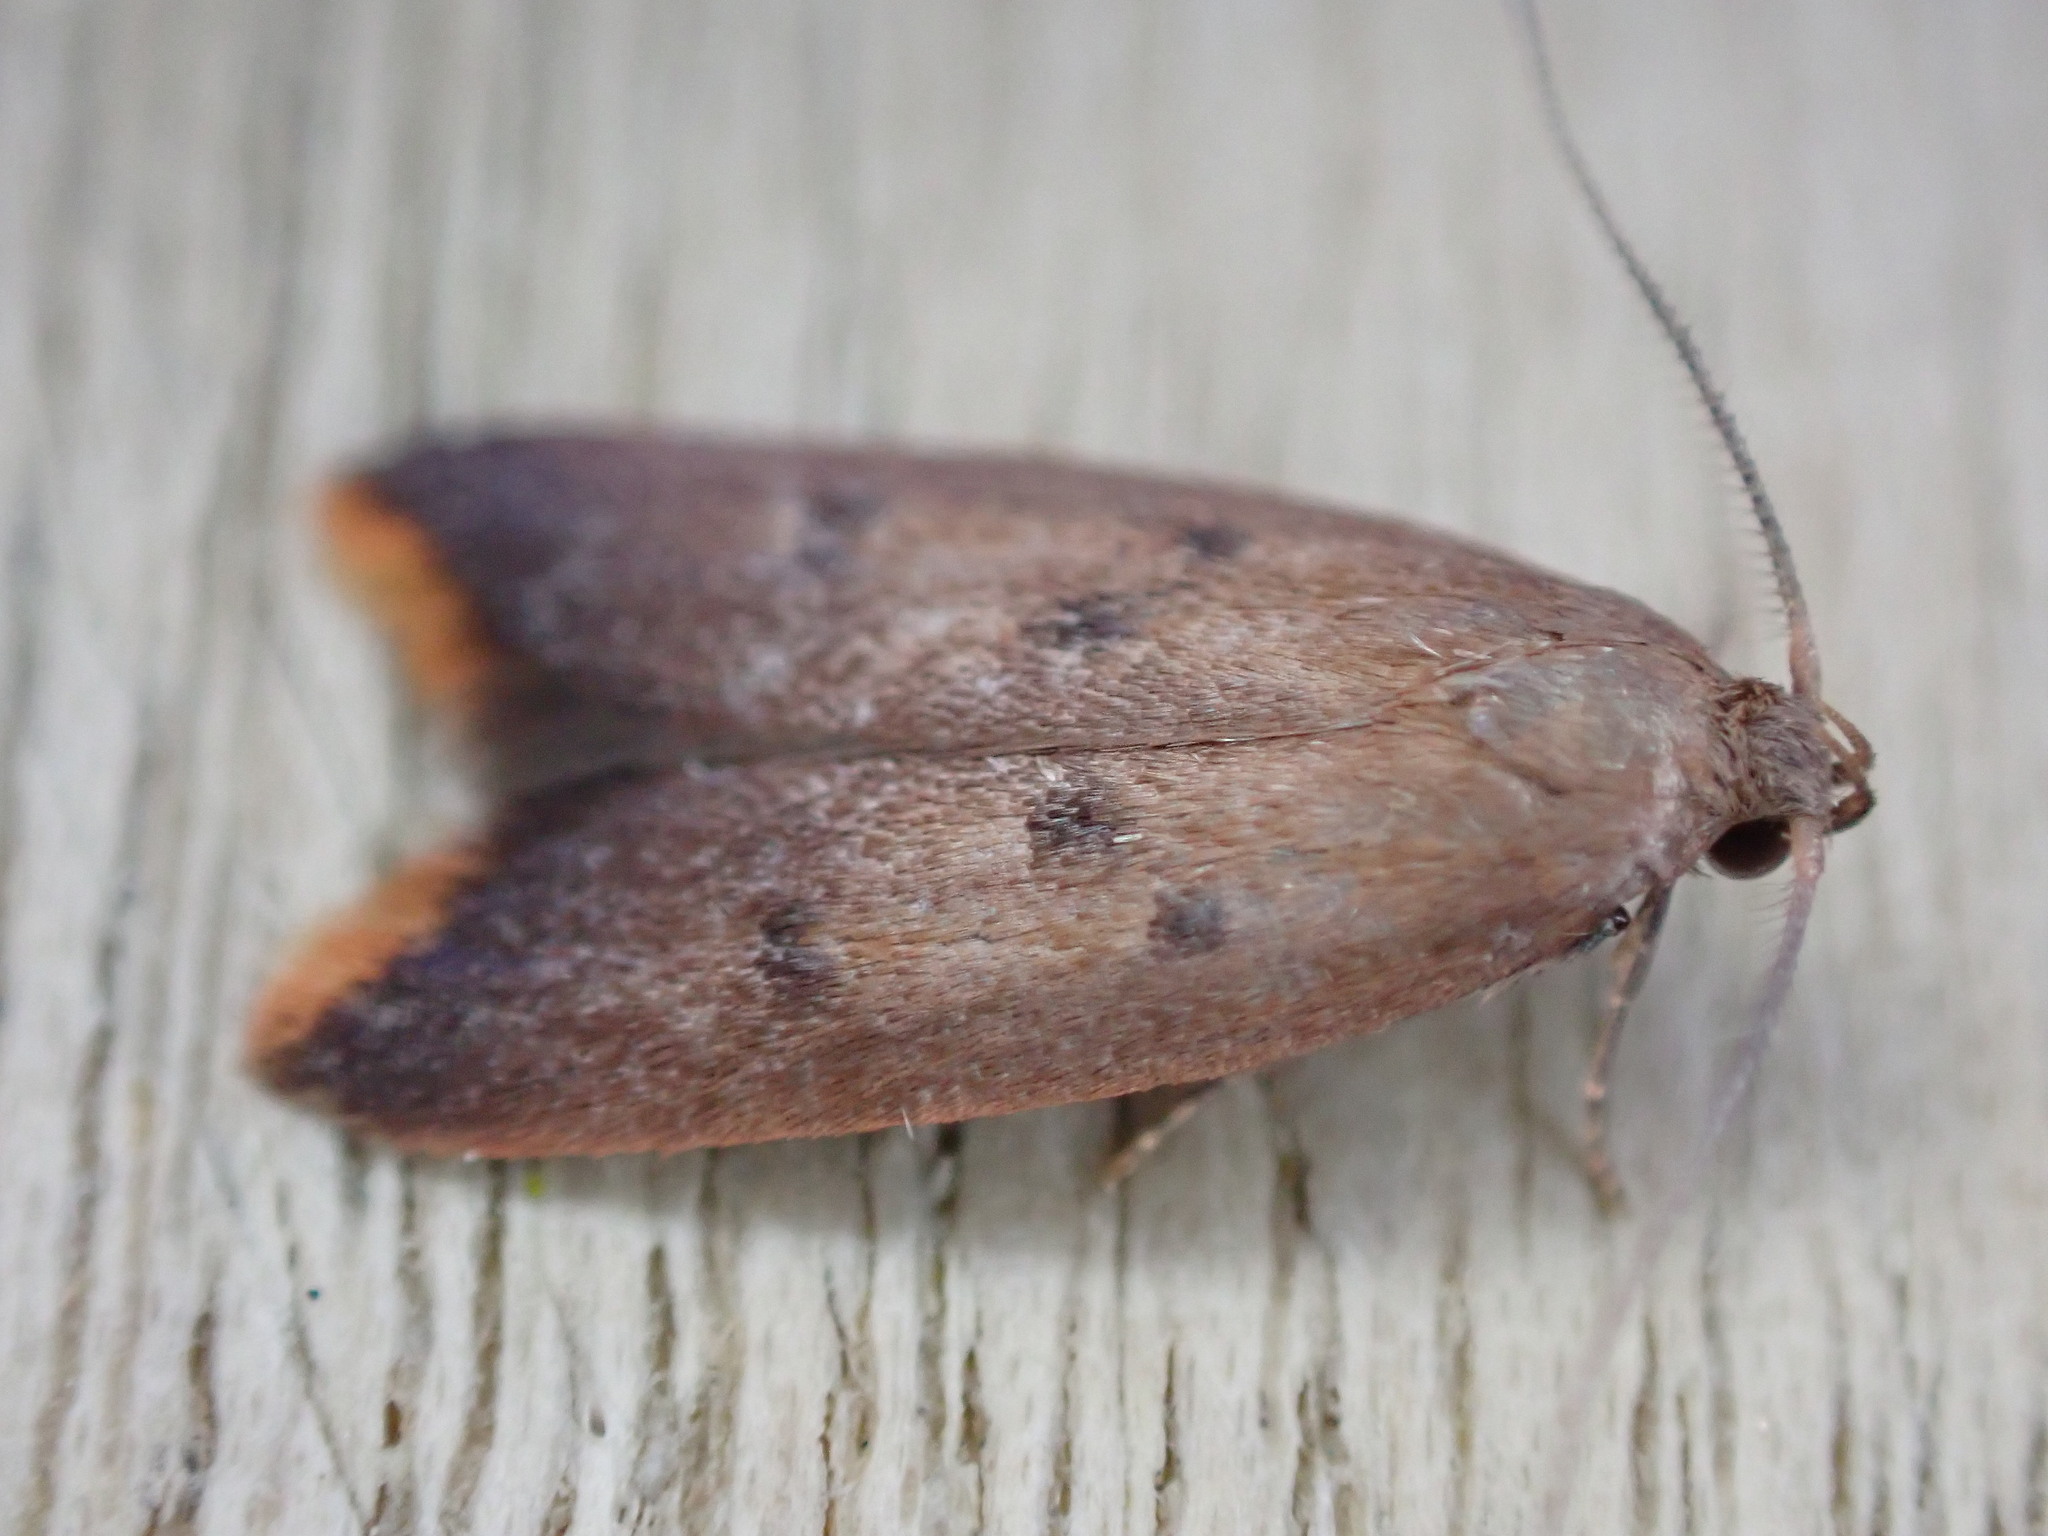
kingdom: Animalia
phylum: Arthropoda
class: Insecta
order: Lepidoptera
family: Oecophoridae
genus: Tachystola
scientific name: Tachystola acroxantha
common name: Ruddy streak
